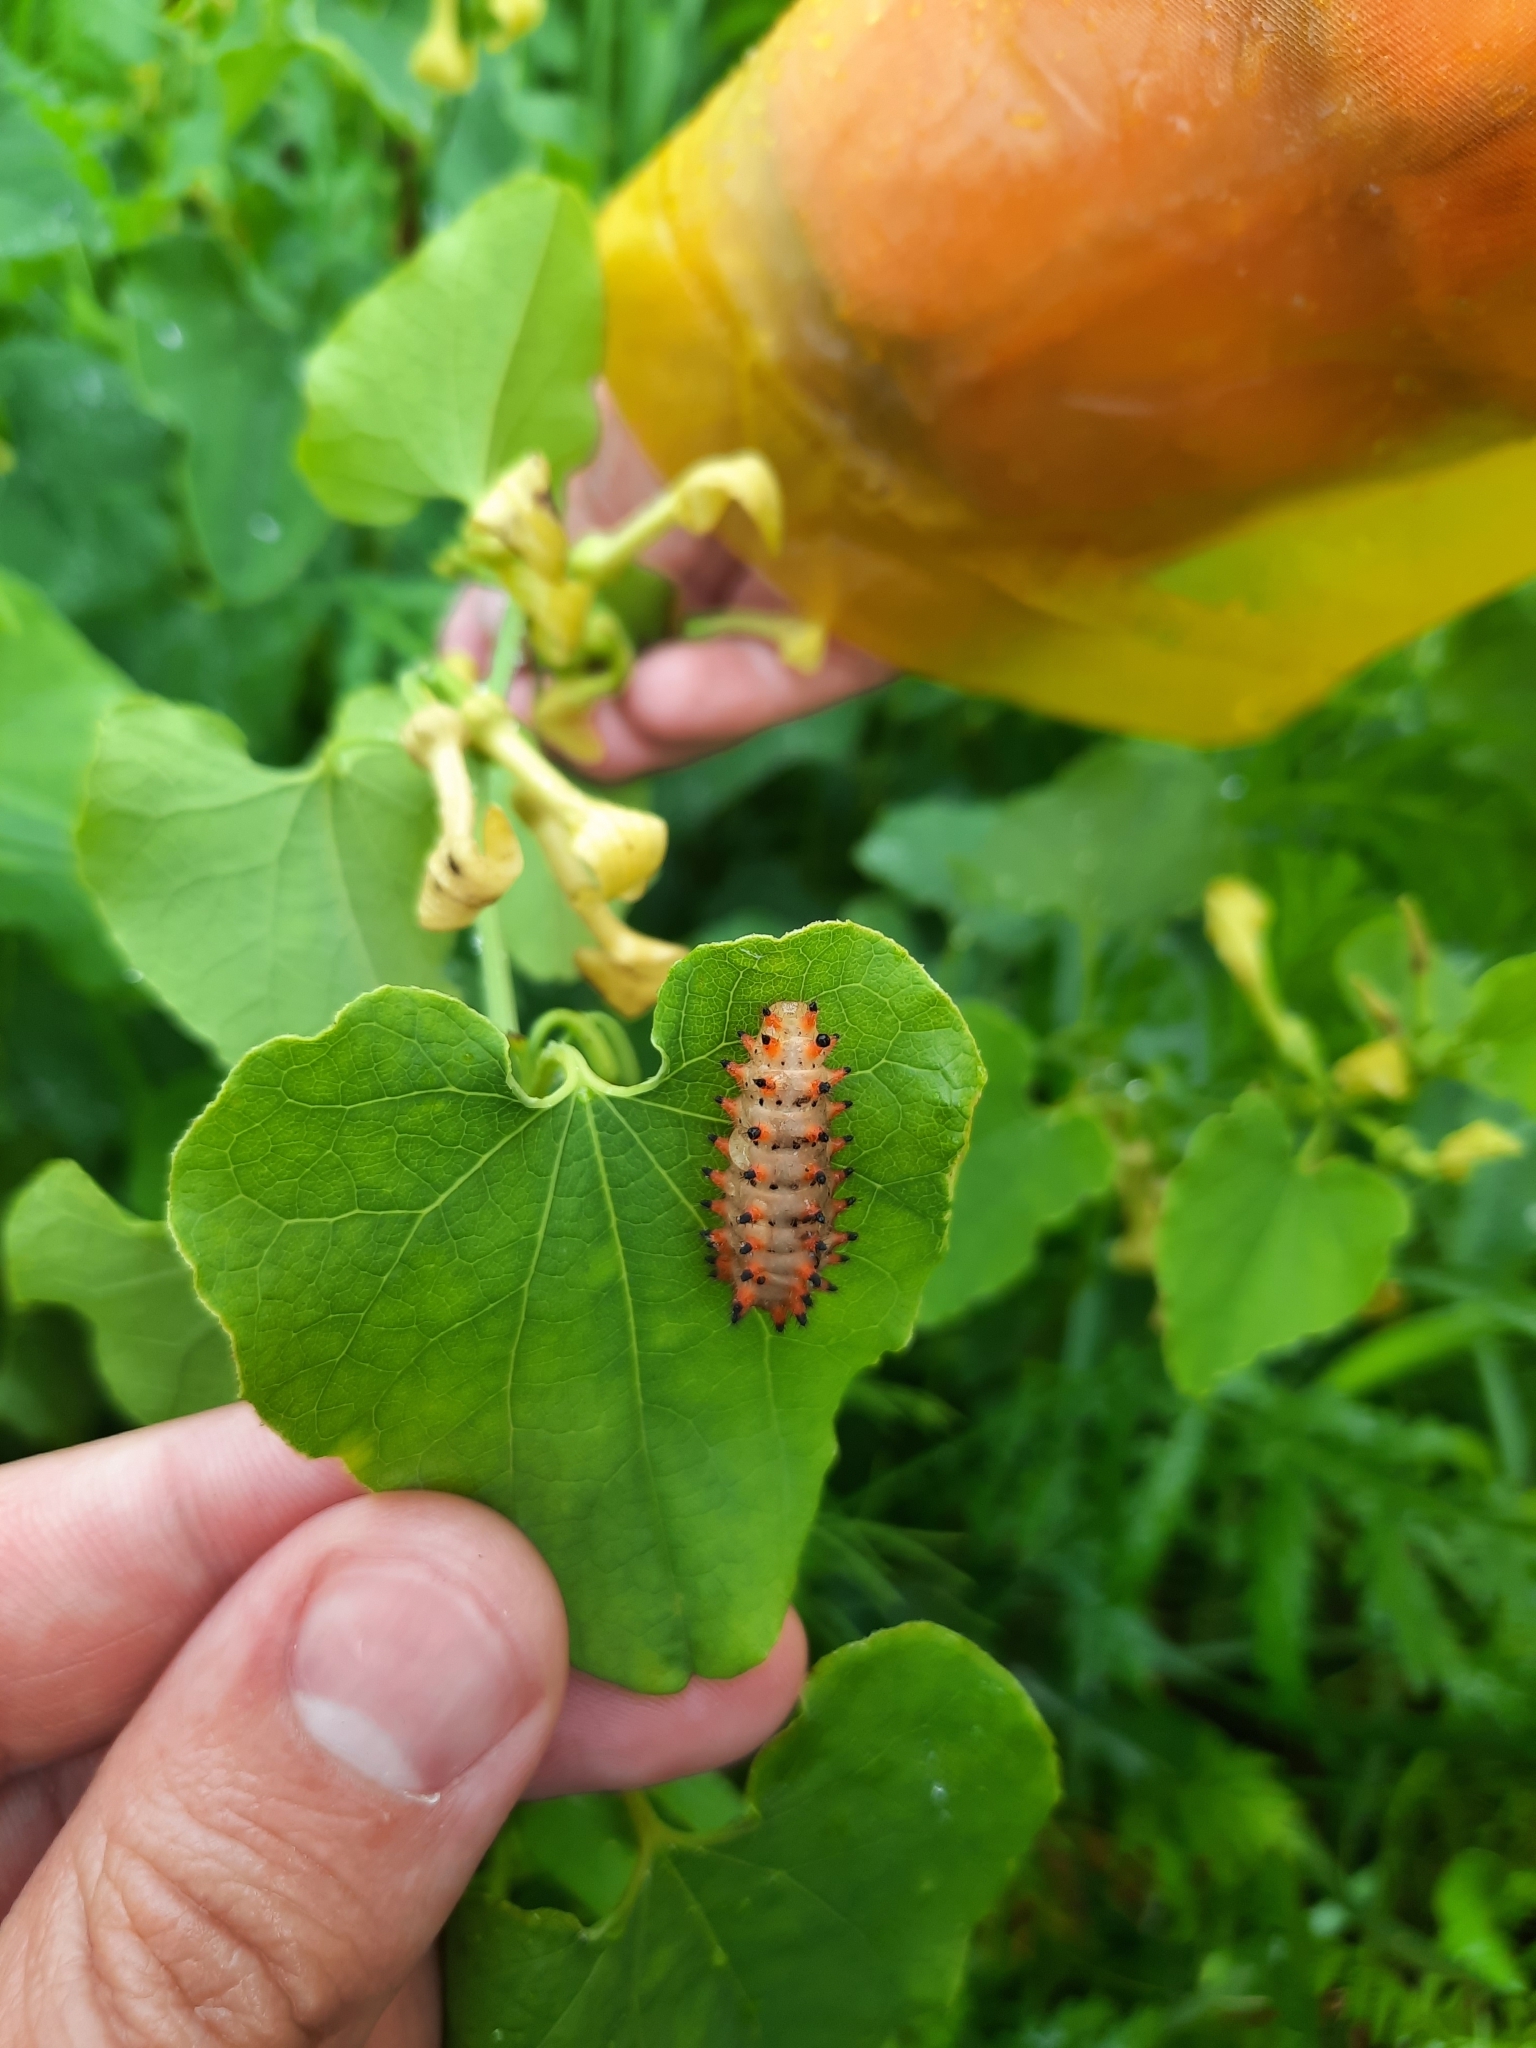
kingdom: Animalia
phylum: Arthropoda
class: Insecta
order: Lepidoptera
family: Papilionidae
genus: Zerynthia
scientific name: Zerynthia polyxena
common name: Southern festoon
